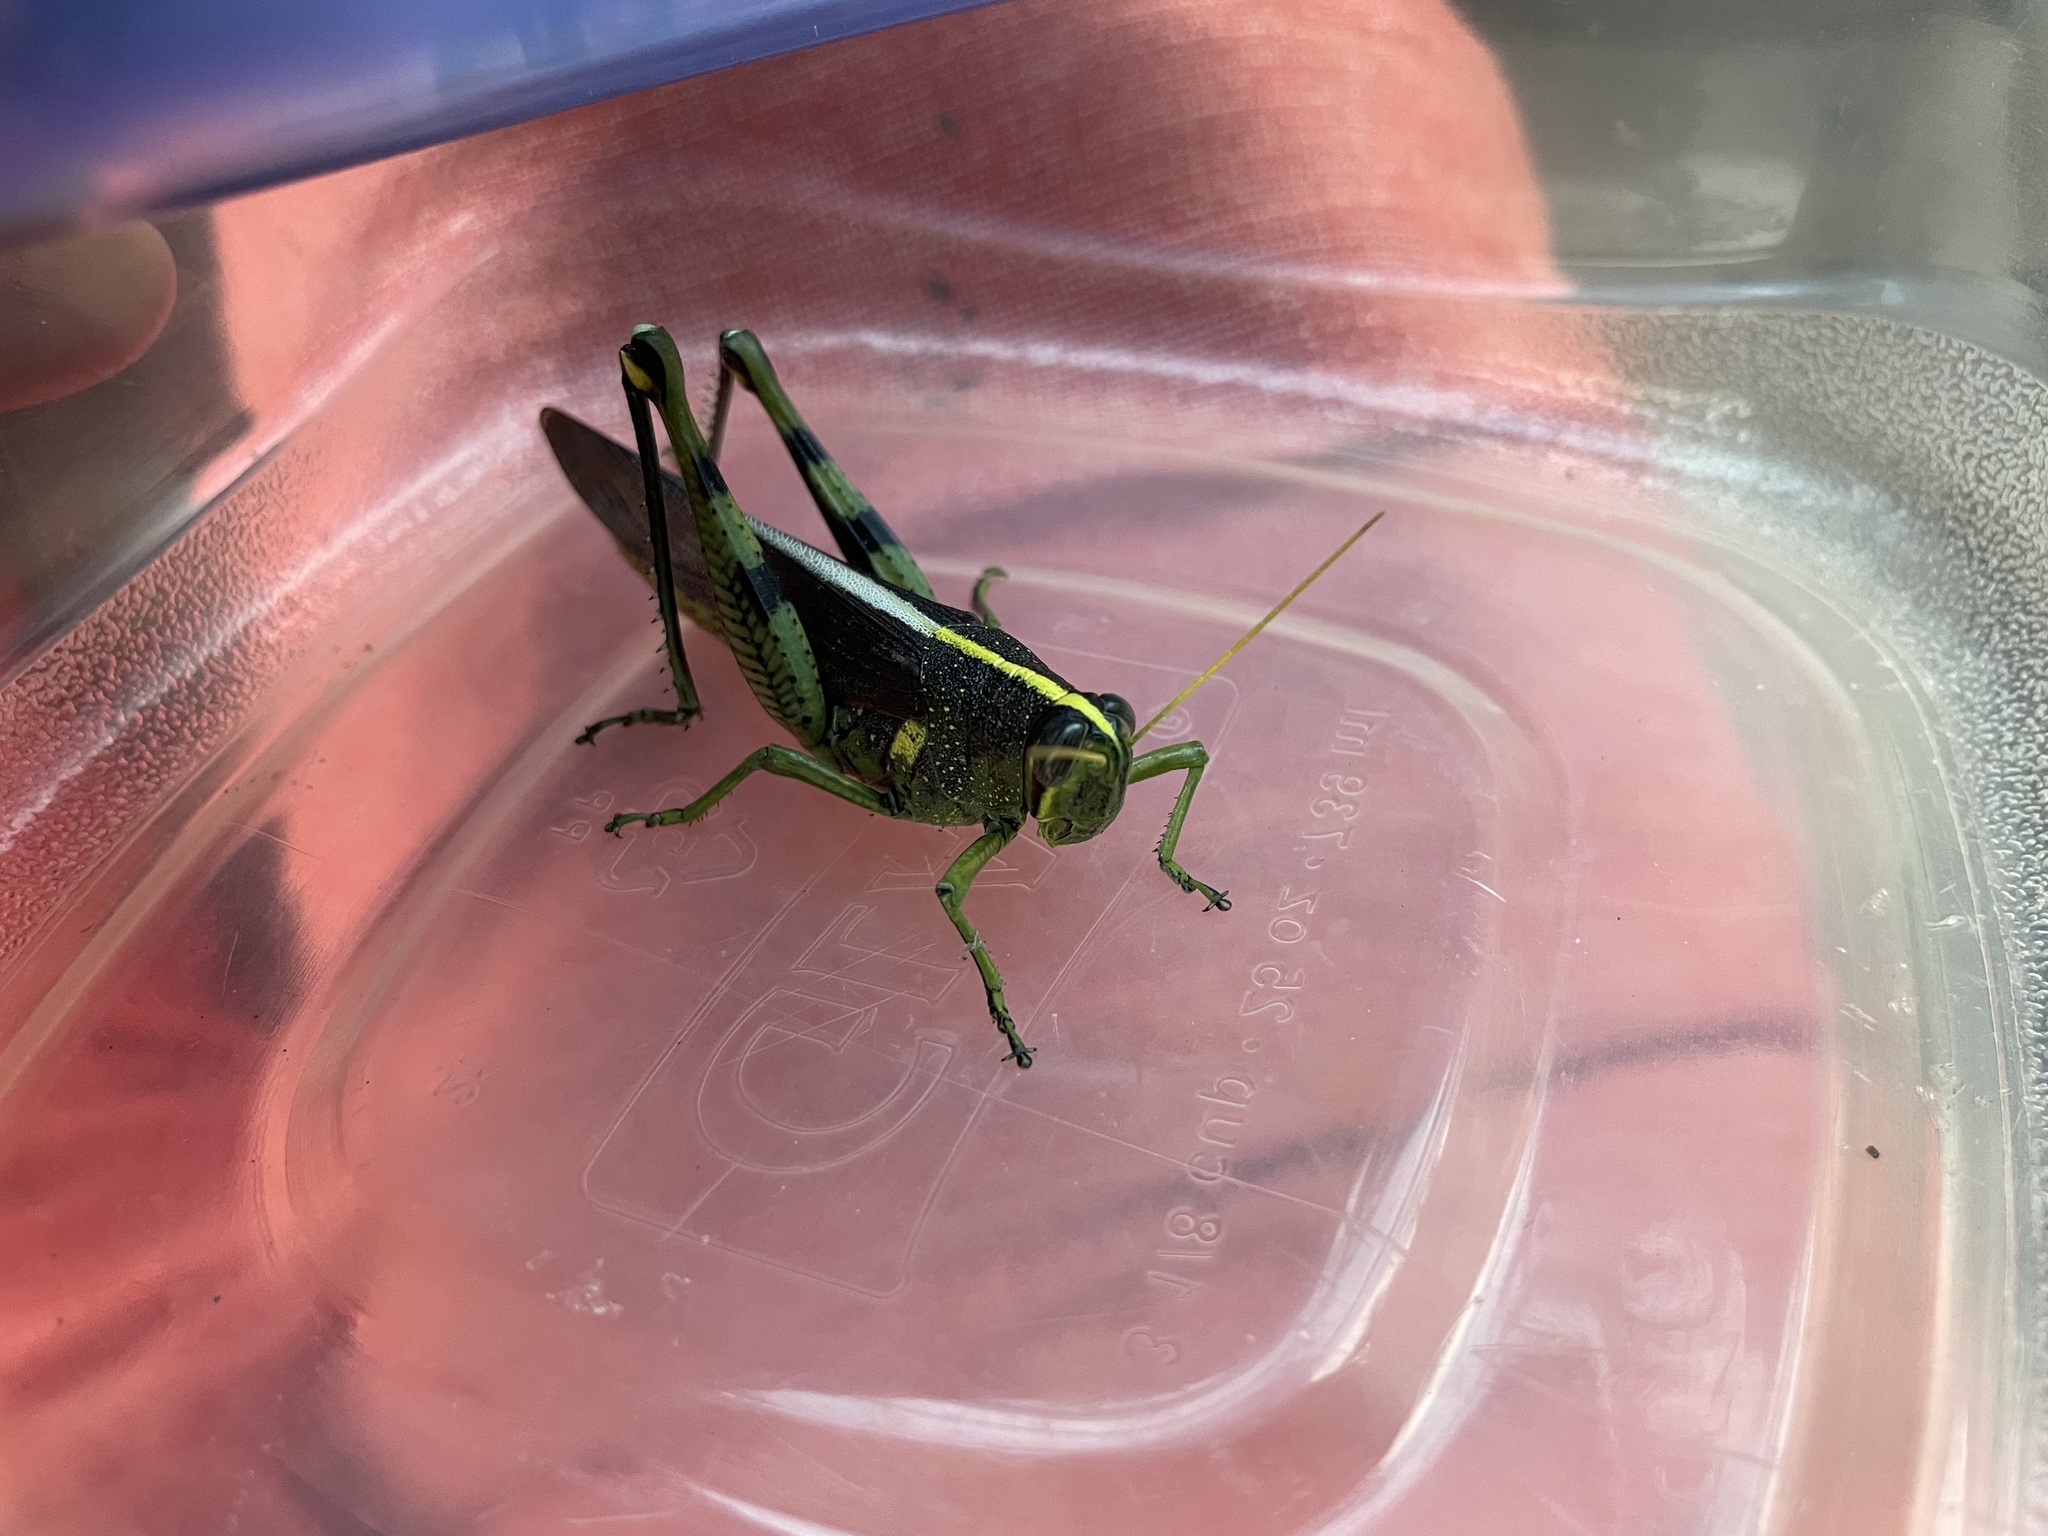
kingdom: Animalia
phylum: Arthropoda
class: Insecta
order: Orthoptera
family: Acrididae
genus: Schistocerca
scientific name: Schistocerca obscura
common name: Obscure bird grasshopper
